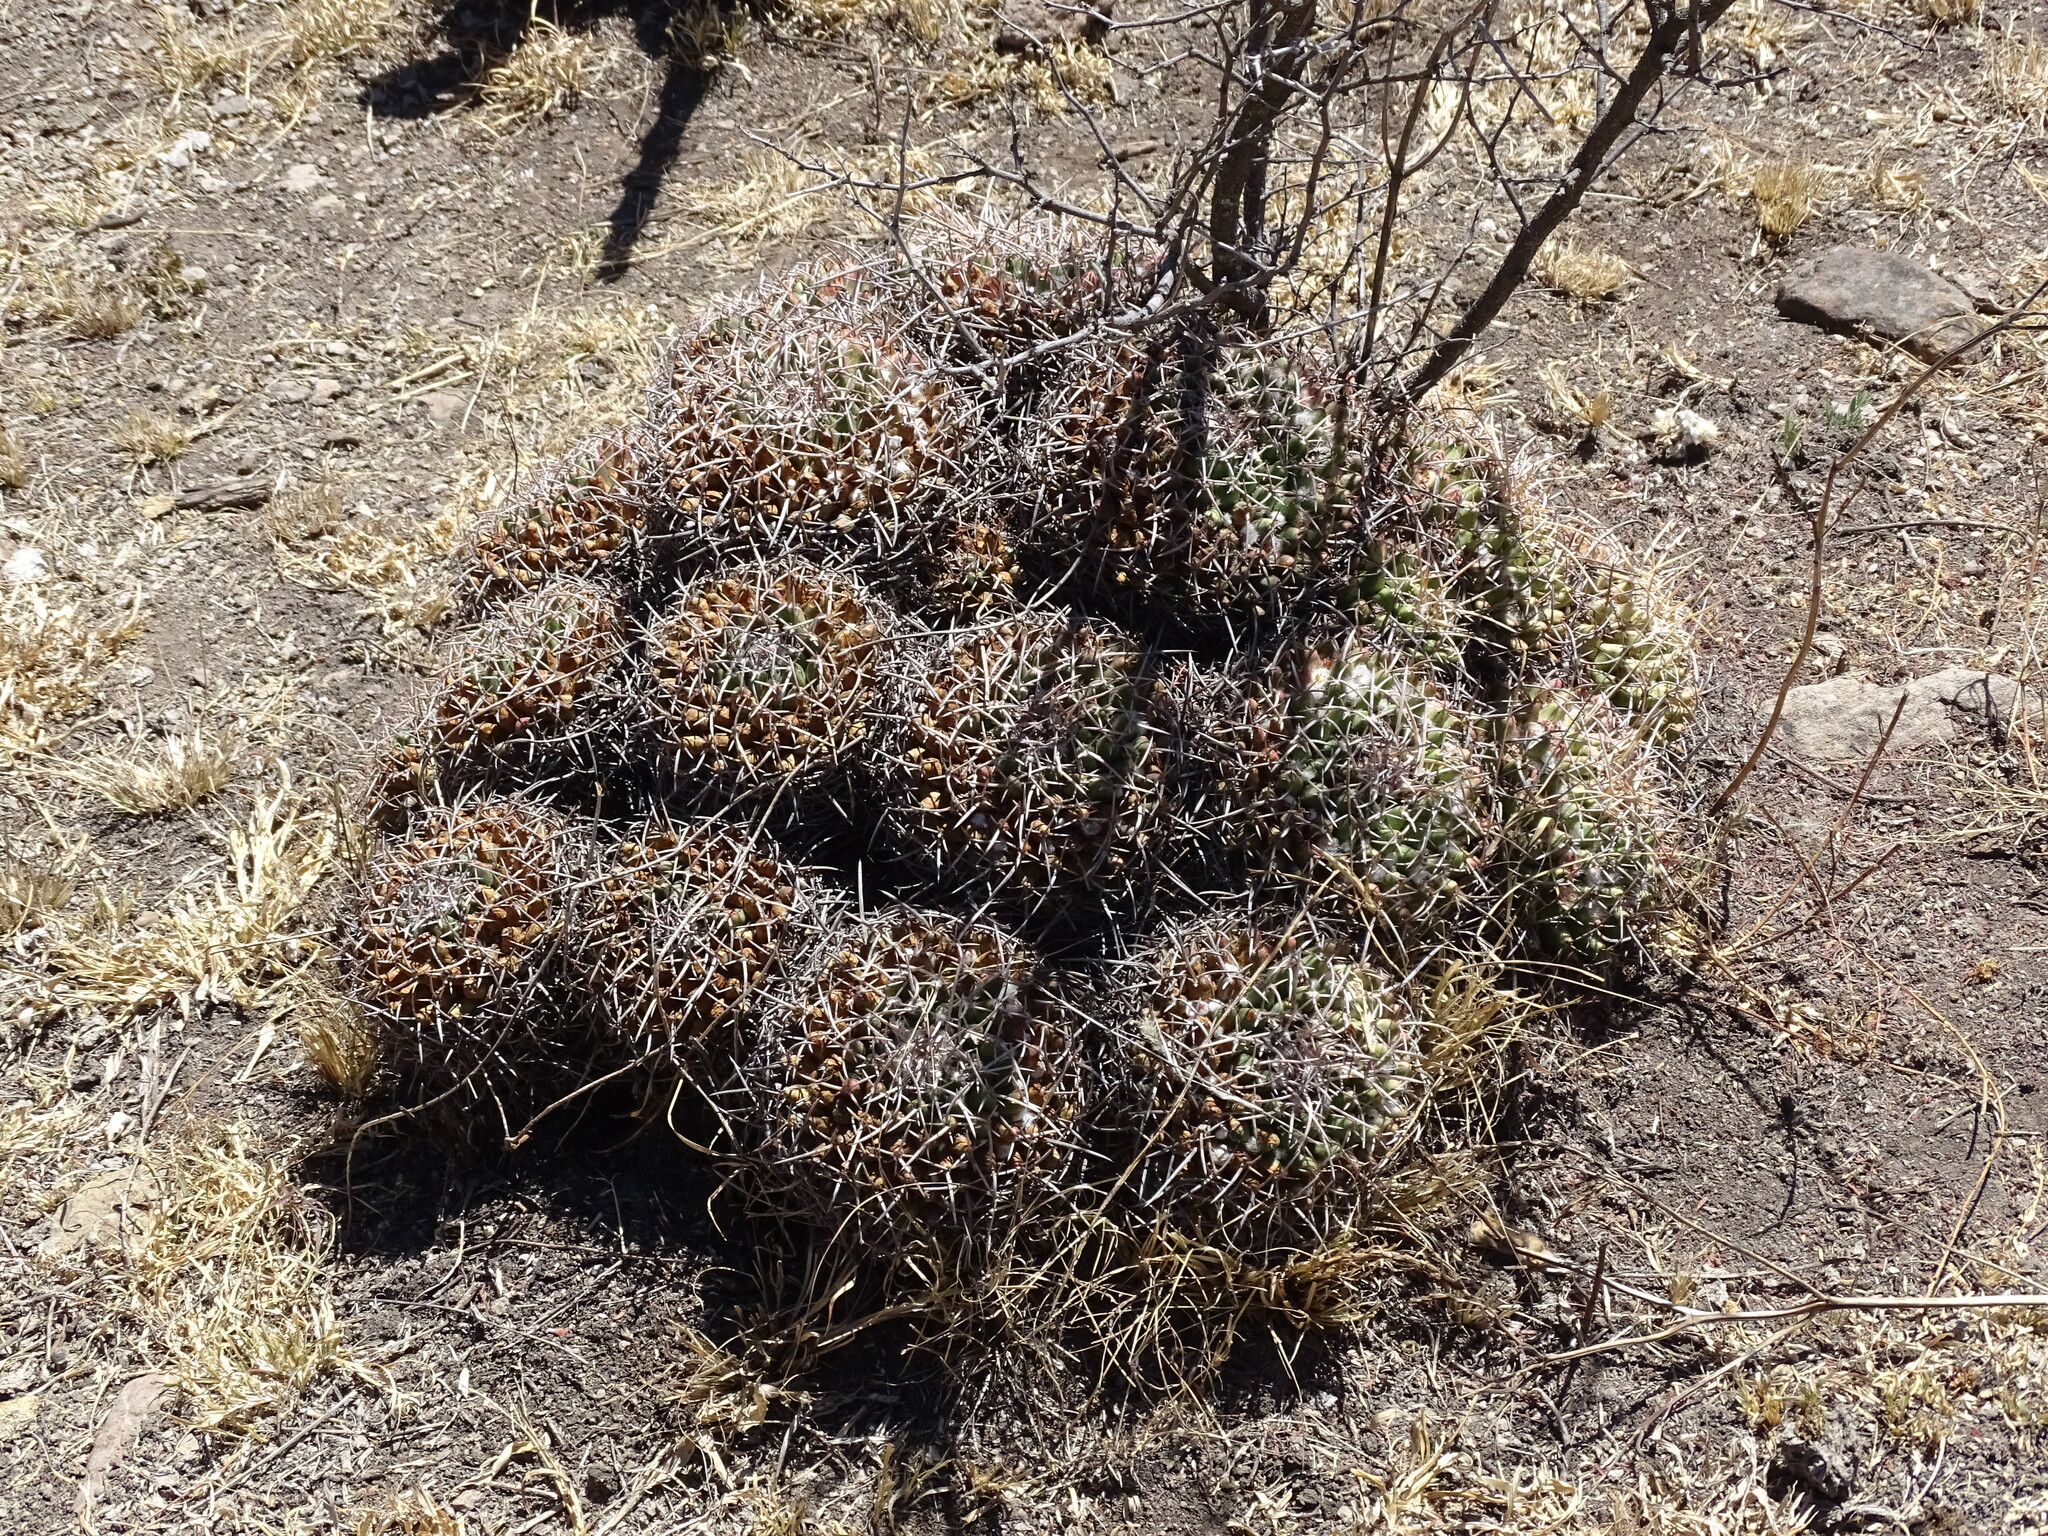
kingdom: Plantae
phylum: Tracheophyta
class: Magnoliopsida
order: Caryophyllales
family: Cactaceae
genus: Mammillaria
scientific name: Mammillaria magnimamma
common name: Mexican pincushion
